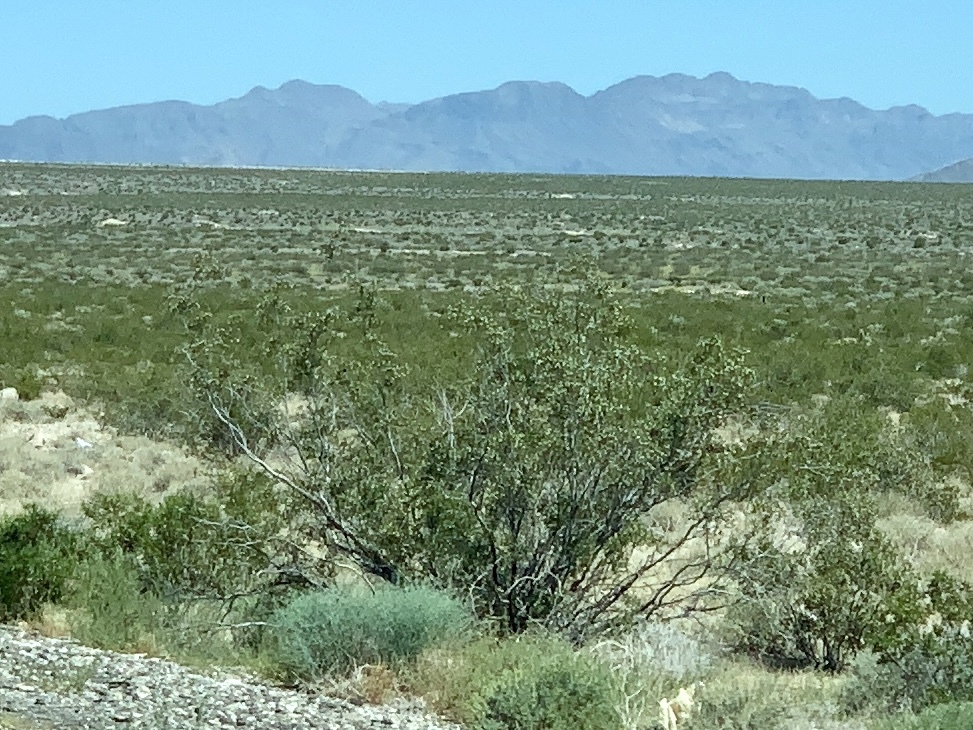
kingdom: Plantae
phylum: Tracheophyta
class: Magnoliopsida
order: Zygophyllales
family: Zygophyllaceae
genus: Larrea
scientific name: Larrea tridentata
